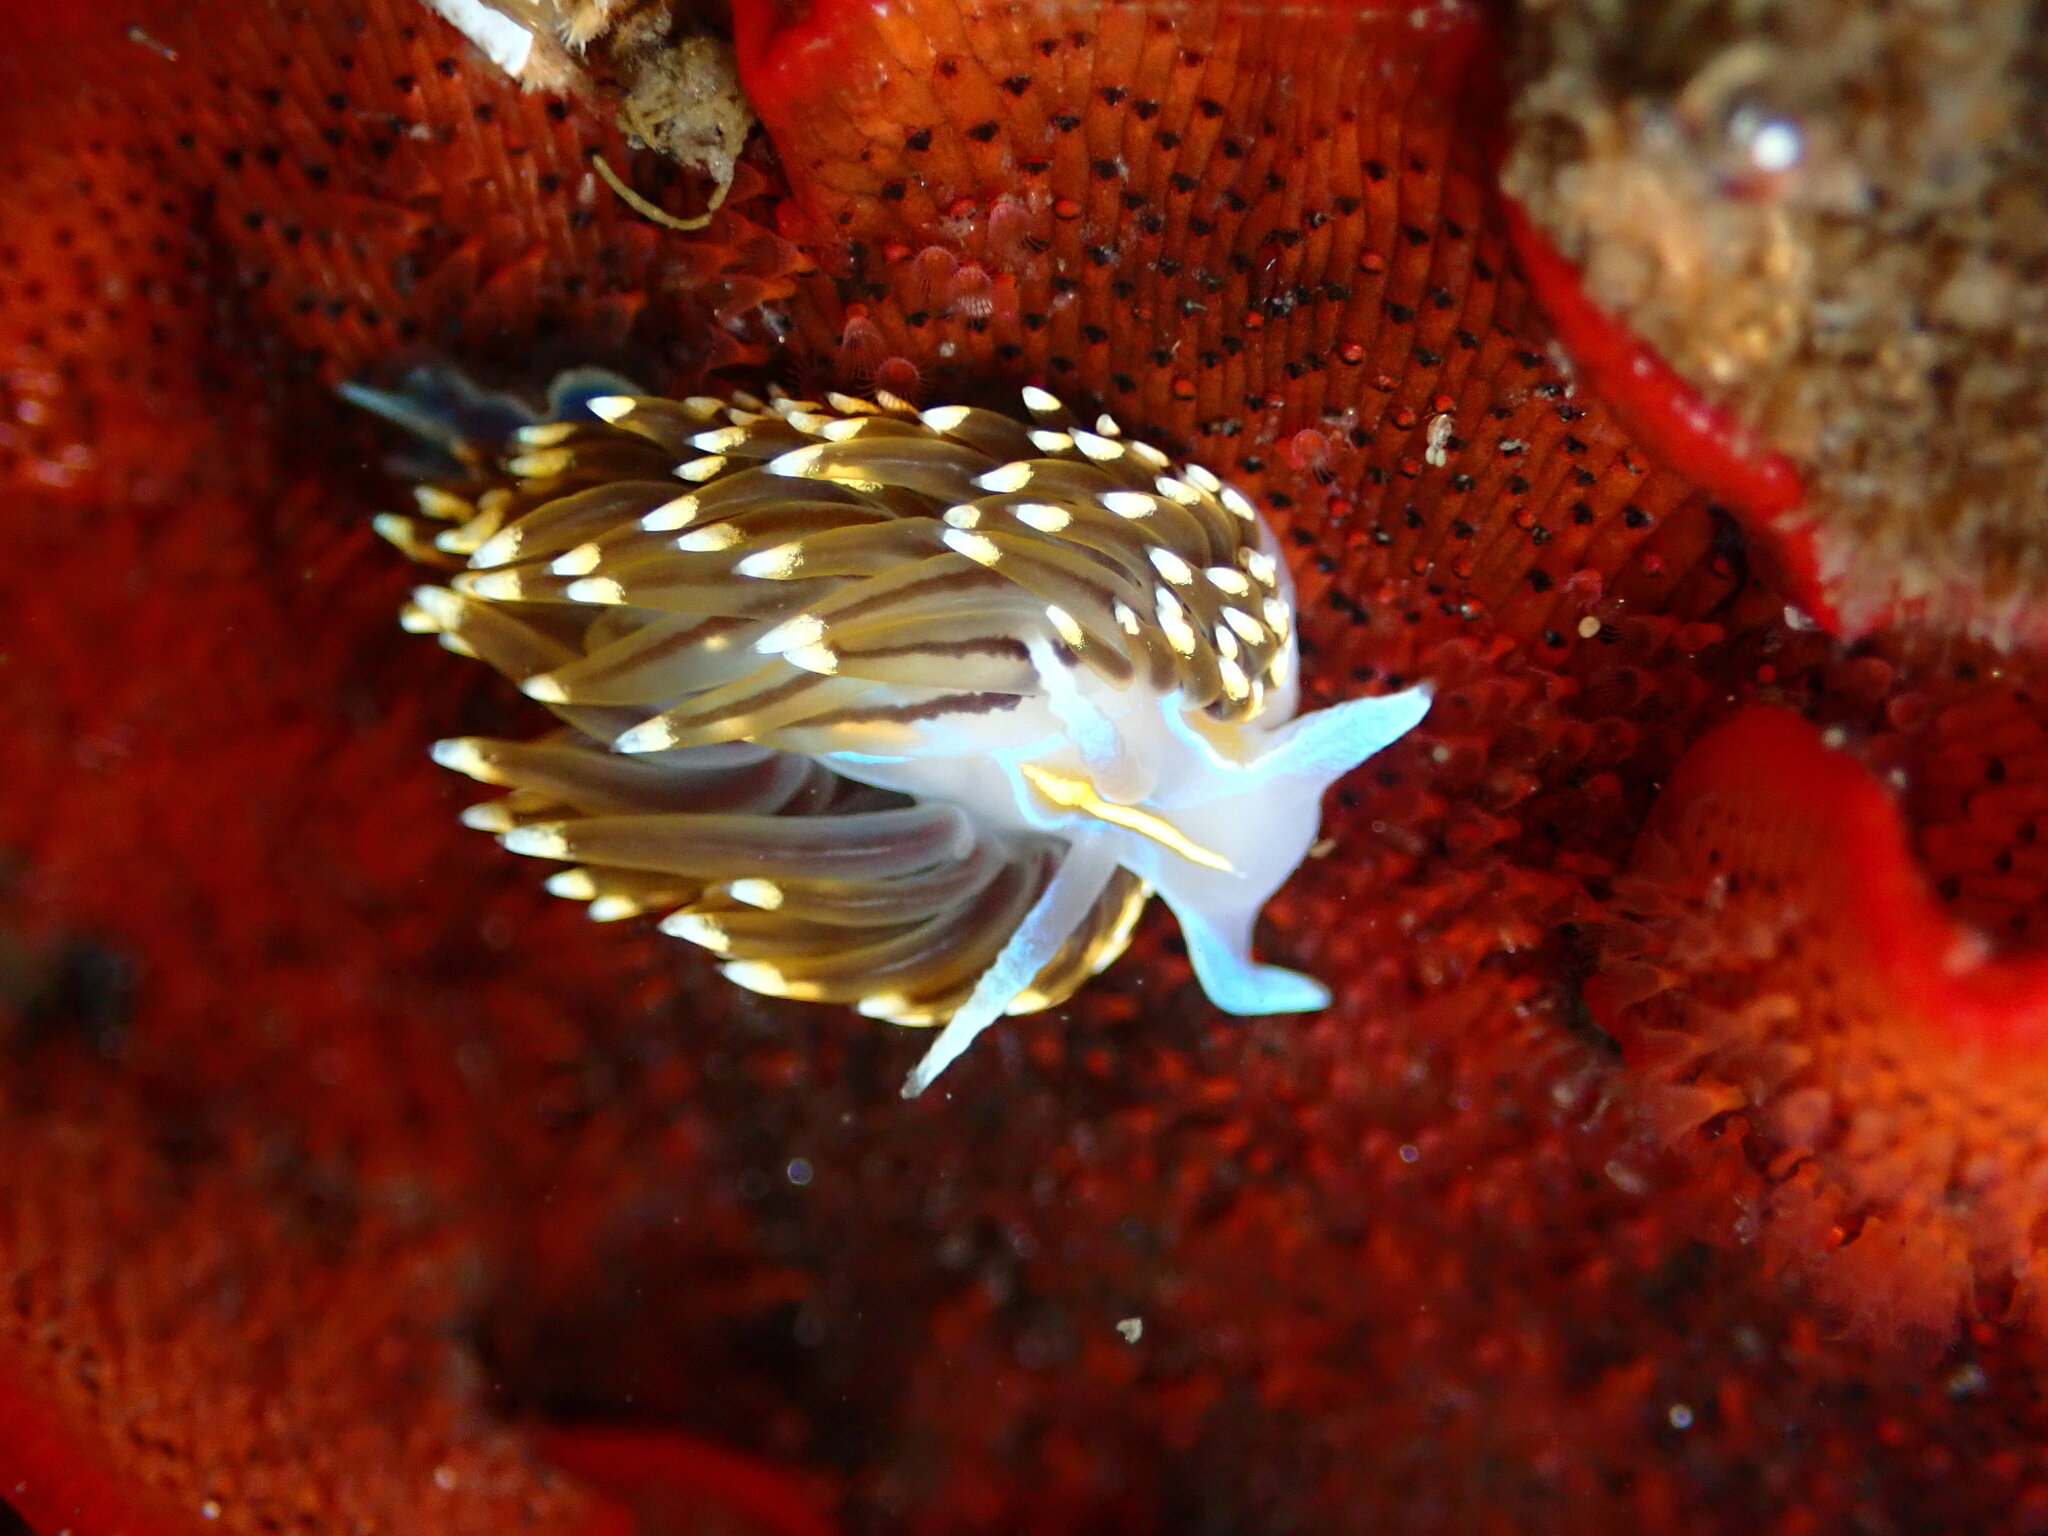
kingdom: Animalia
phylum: Mollusca
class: Gastropoda
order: Nudibranchia
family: Myrrhinidae
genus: Hermissenda
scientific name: Hermissenda opalescens
